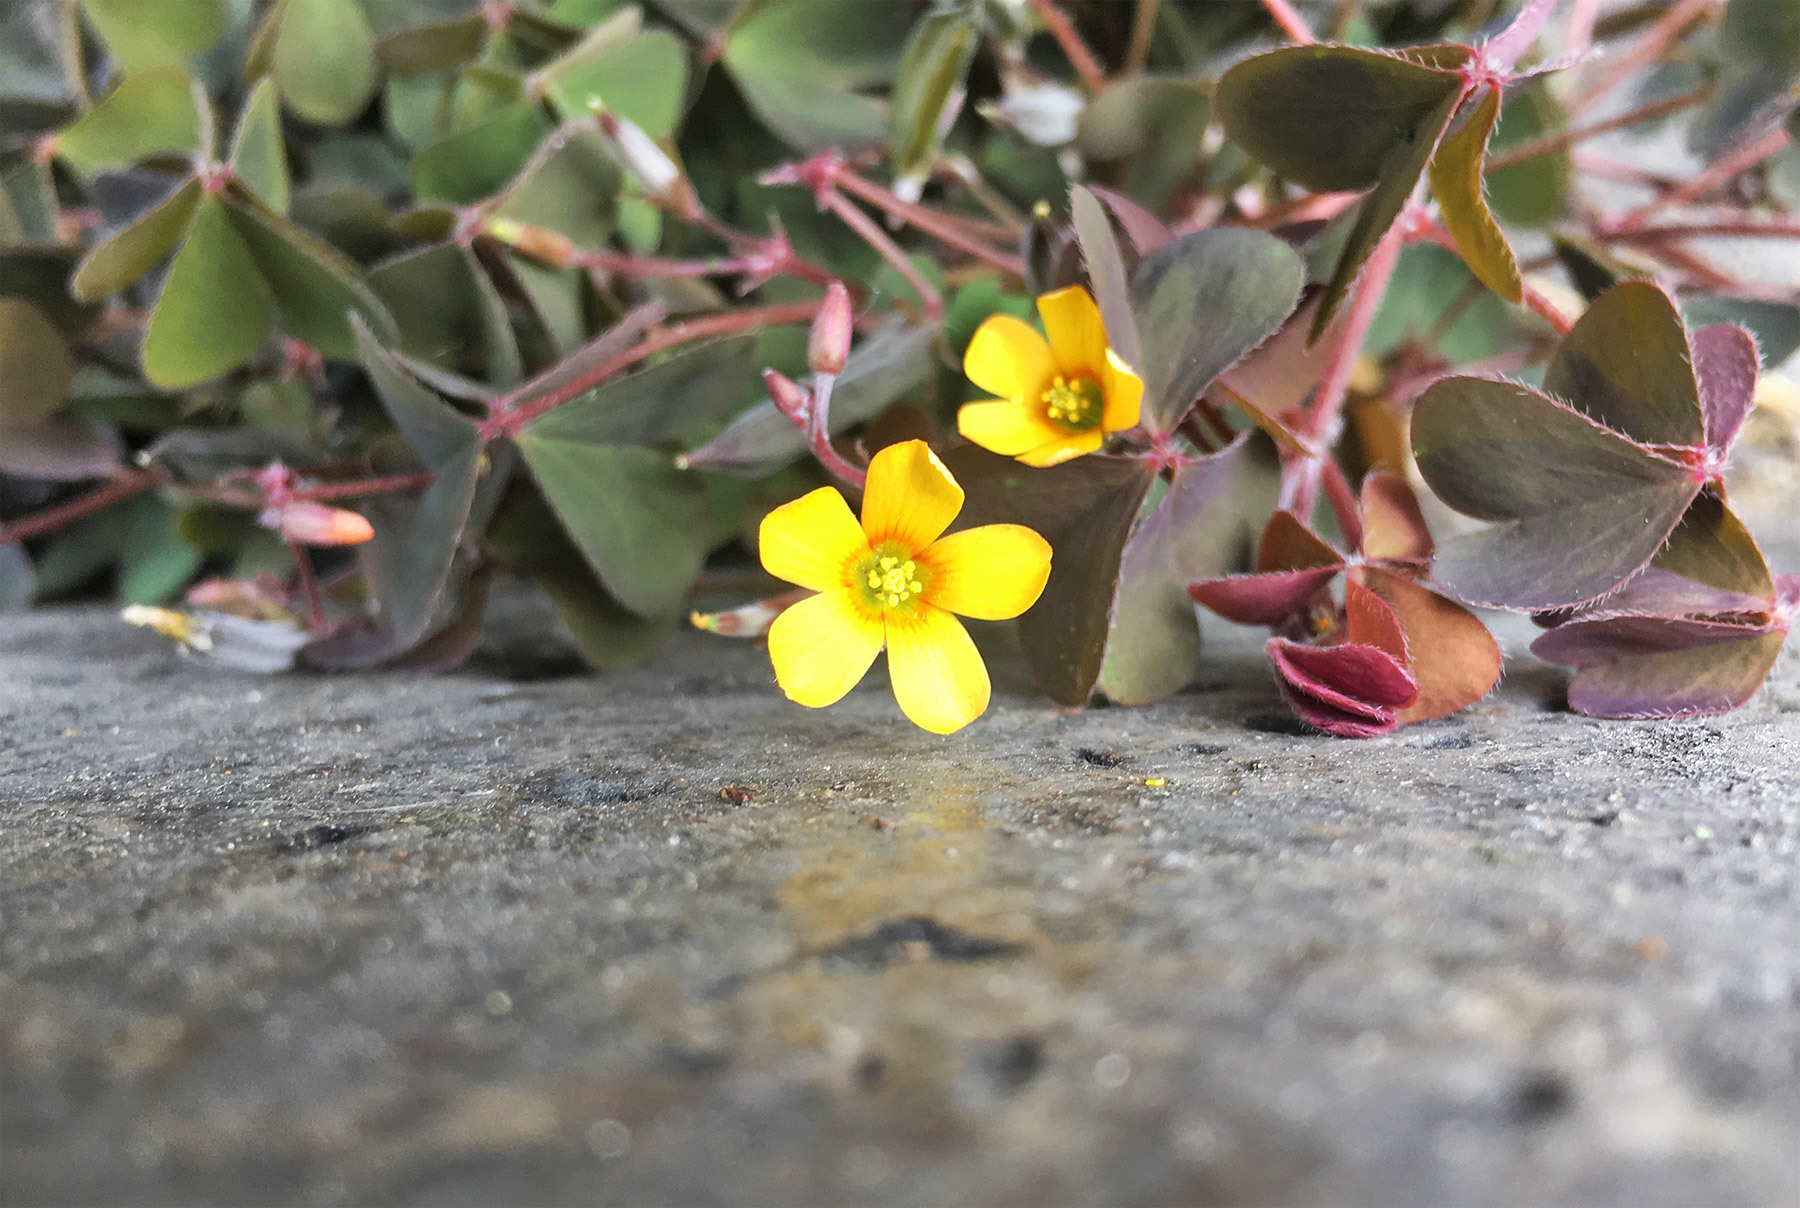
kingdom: Plantae
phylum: Tracheophyta
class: Magnoliopsida
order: Oxalidales
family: Oxalidaceae
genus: Oxalis
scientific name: Oxalis corniculata
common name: Procumbent yellow-sorrel
